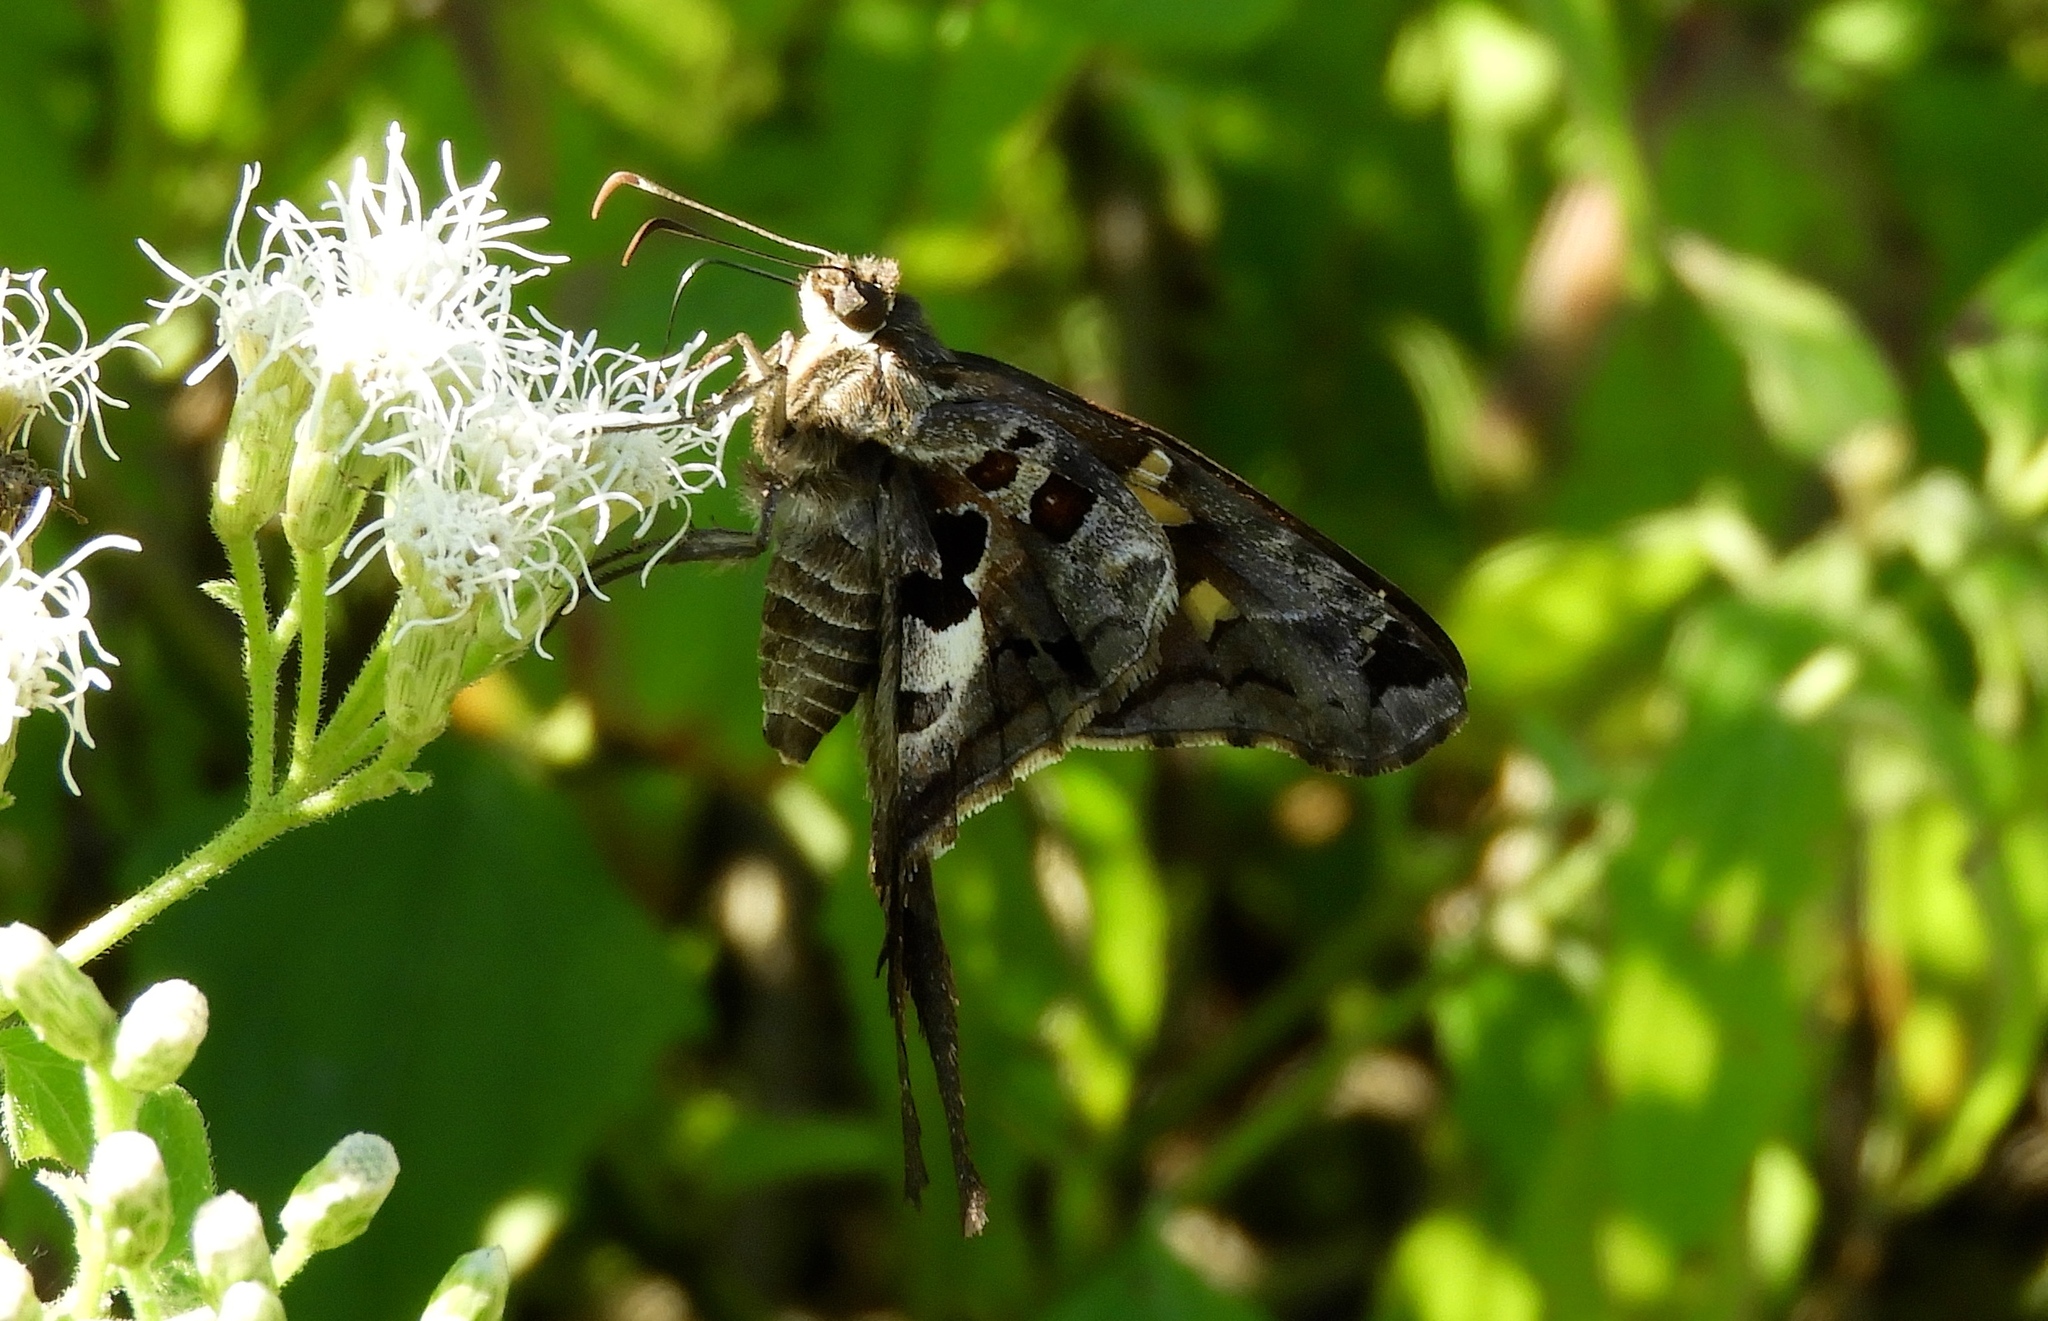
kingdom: Animalia
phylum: Arthropoda
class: Insecta
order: Lepidoptera
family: Hesperiidae
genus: Chioides
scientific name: Chioides zilpa
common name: Zilpa longtail
